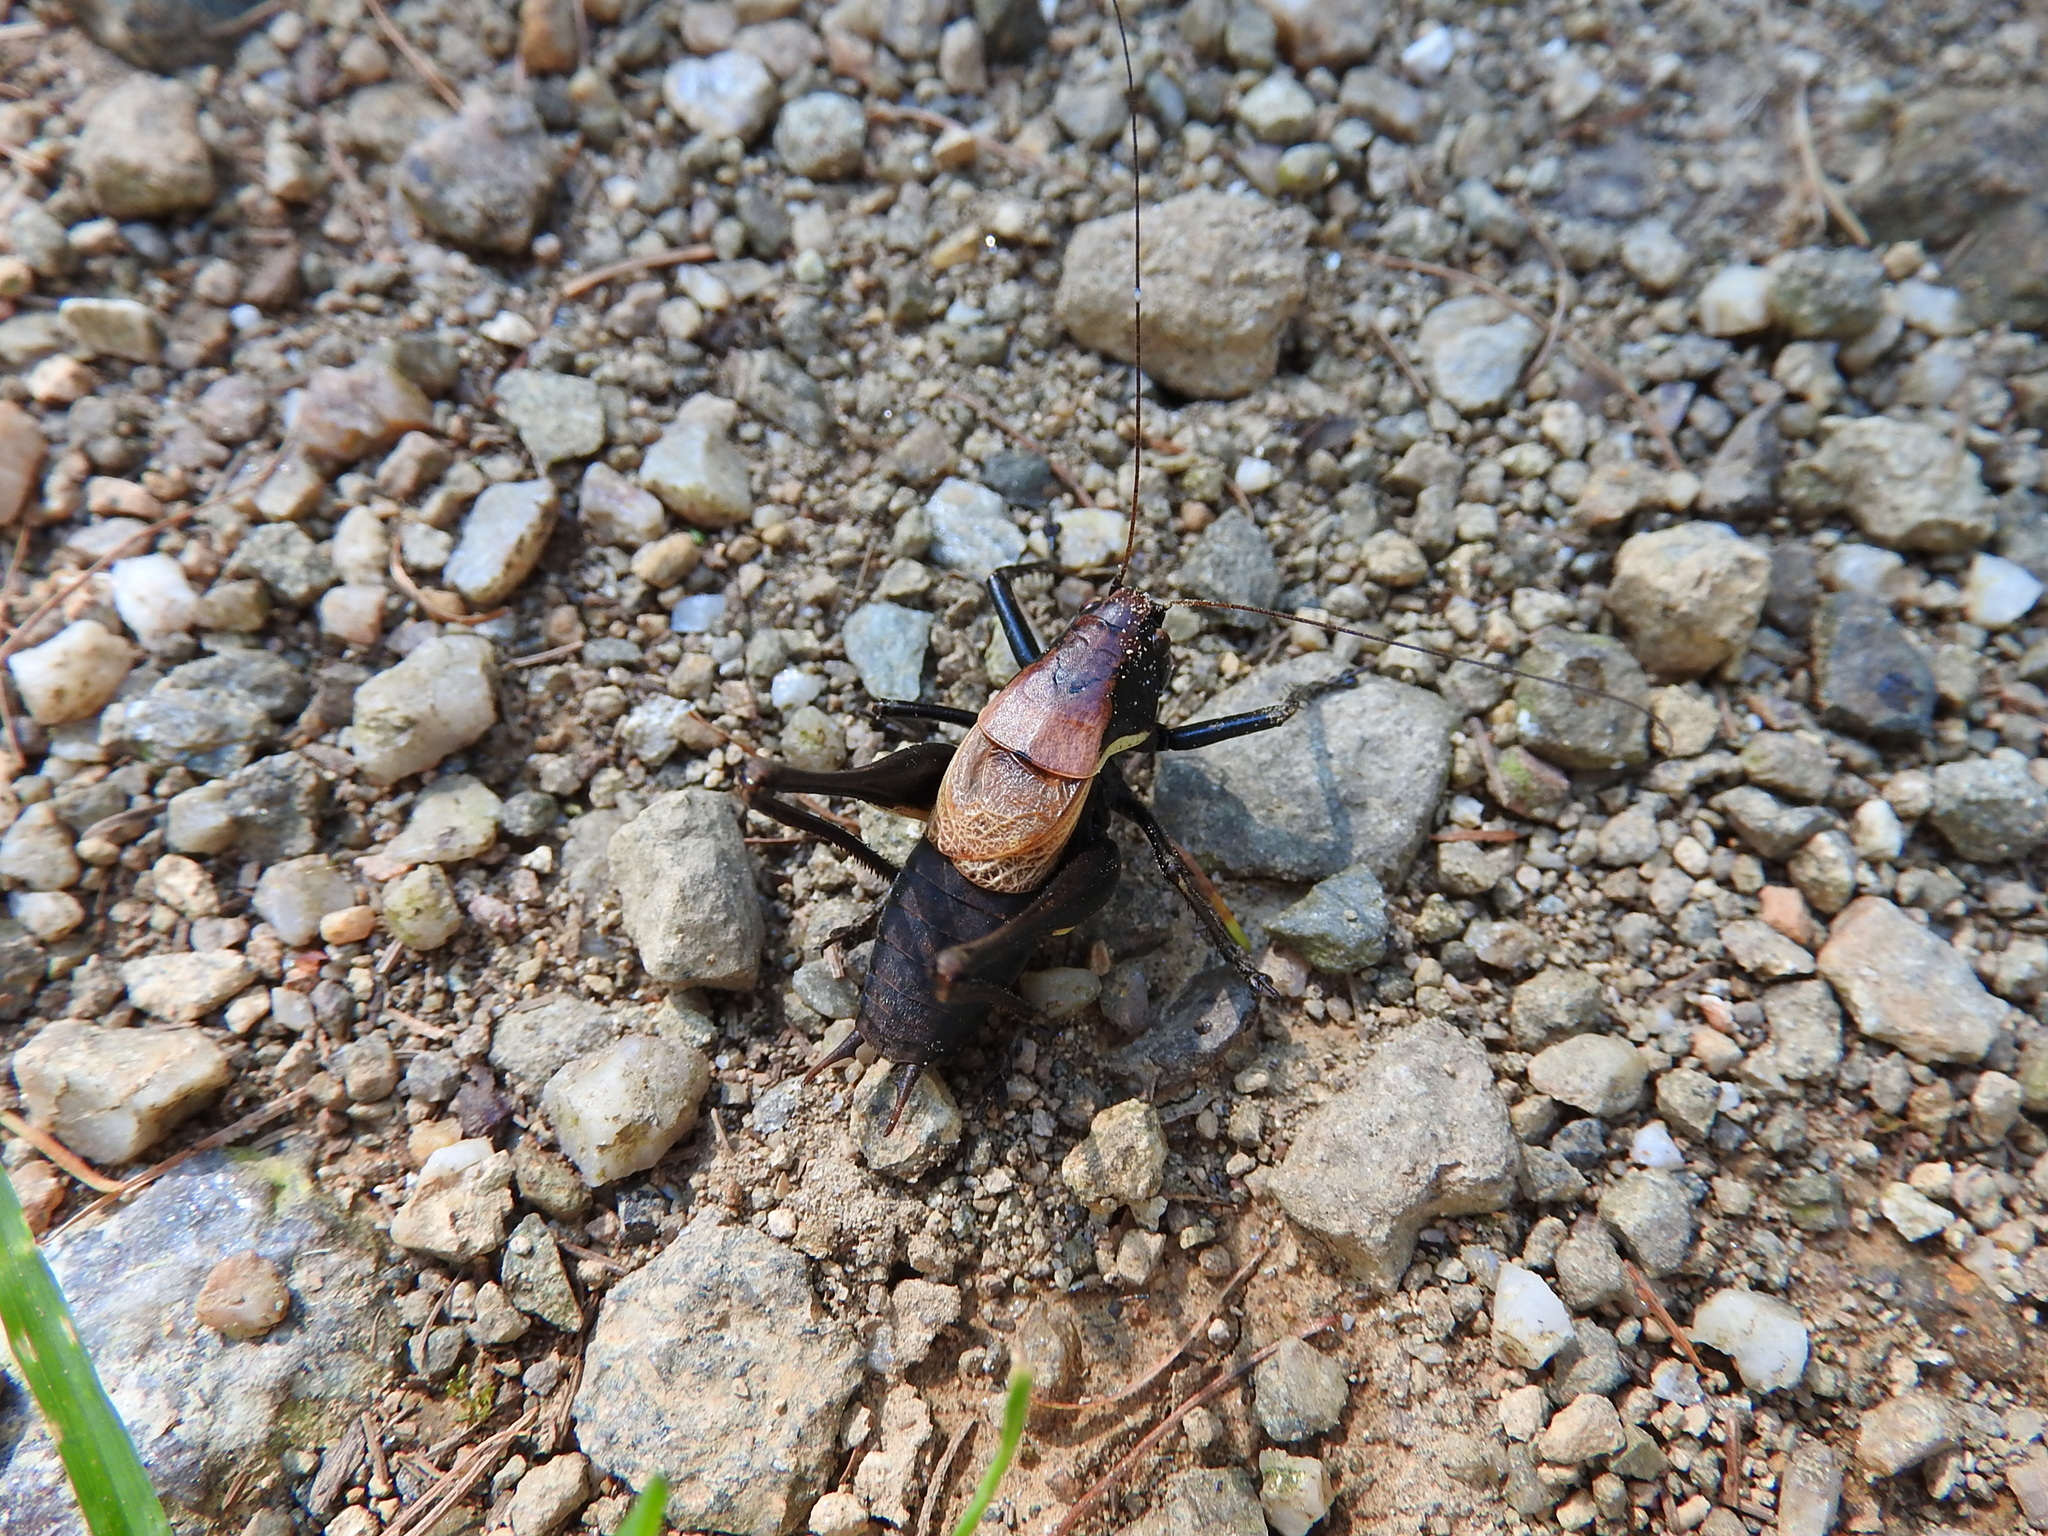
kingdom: Animalia
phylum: Arthropoda
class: Insecta
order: Orthoptera
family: Tettigoniidae
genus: Pholidoptera
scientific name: Pholidoptera aptera
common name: Alpine dark bush-cricket
